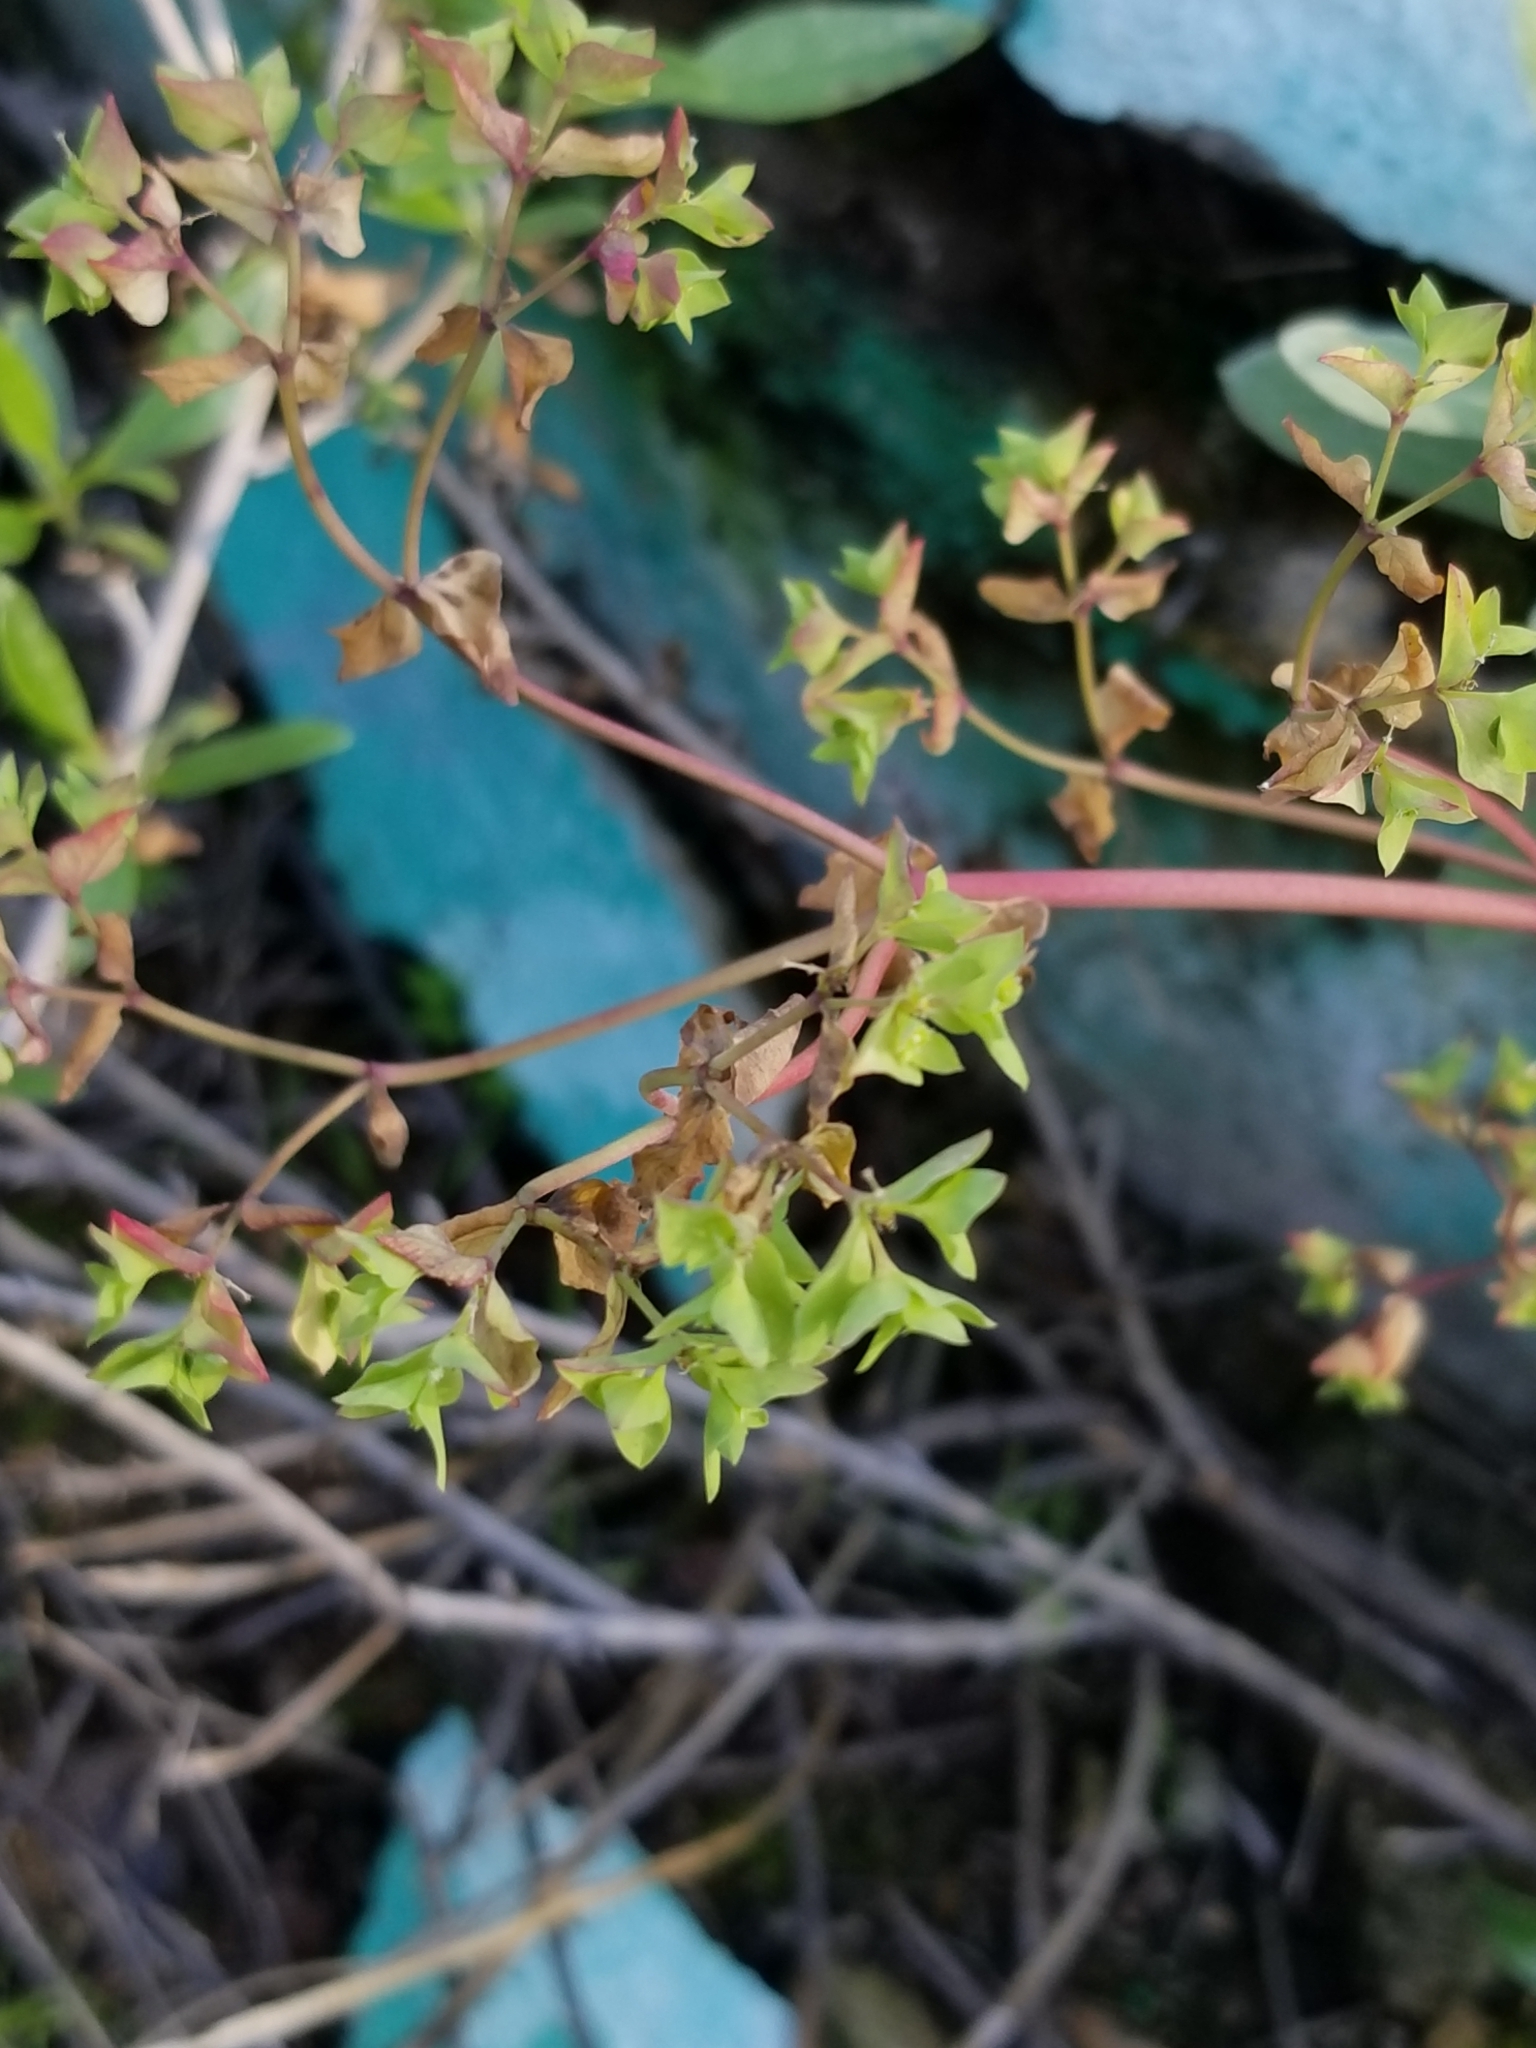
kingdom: Plantae
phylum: Tracheophyta
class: Magnoliopsida
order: Malpighiales
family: Euphorbiaceae
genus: Euphorbia
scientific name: Euphorbia peplus
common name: Petty spurge
